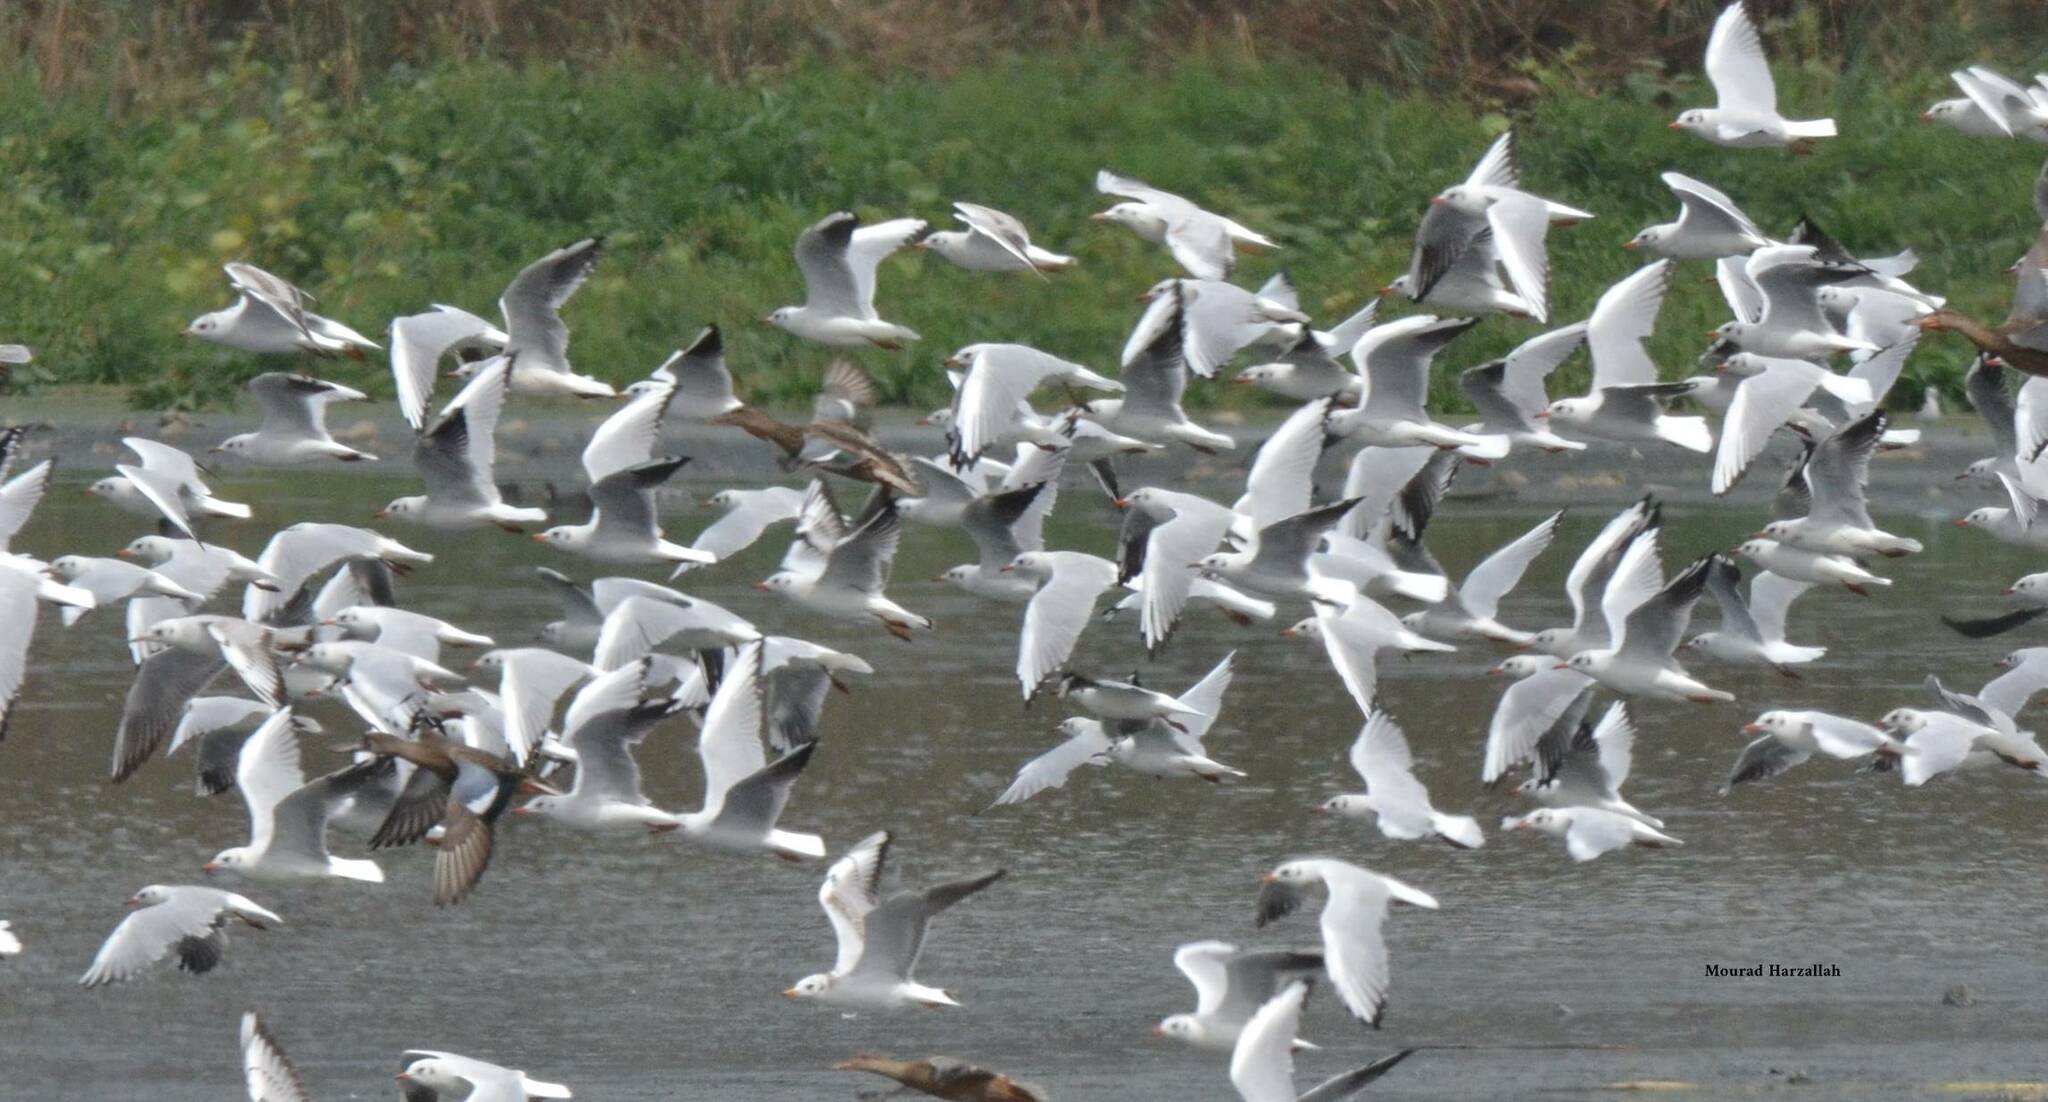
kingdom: Animalia
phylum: Chordata
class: Aves
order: Charadriiformes
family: Laridae
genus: Chroicocephalus
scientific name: Chroicocephalus ridibundus
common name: Black-headed gull
